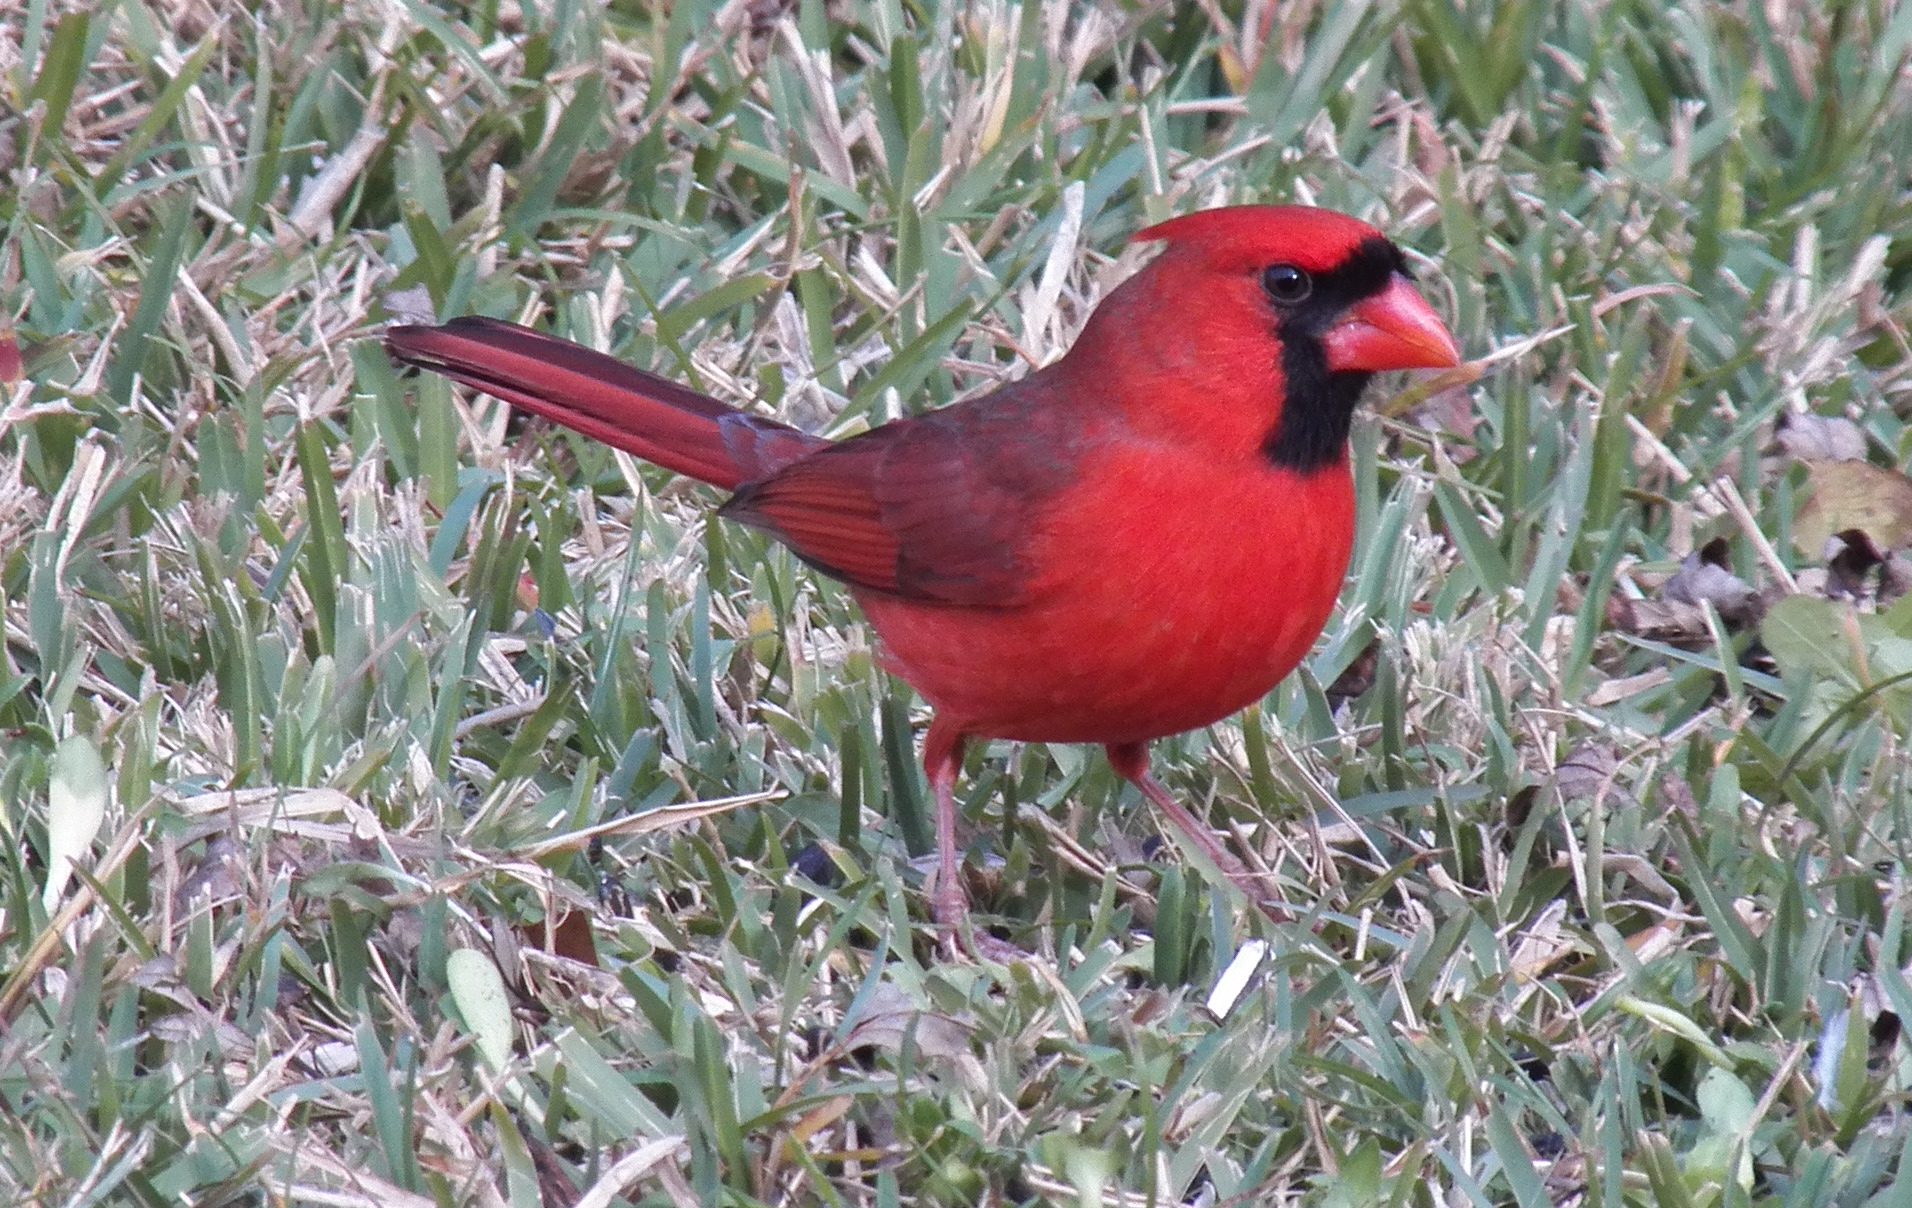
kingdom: Animalia
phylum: Chordata
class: Aves
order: Passeriformes
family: Cardinalidae
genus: Cardinalis
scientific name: Cardinalis cardinalis
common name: Northern cardinal
